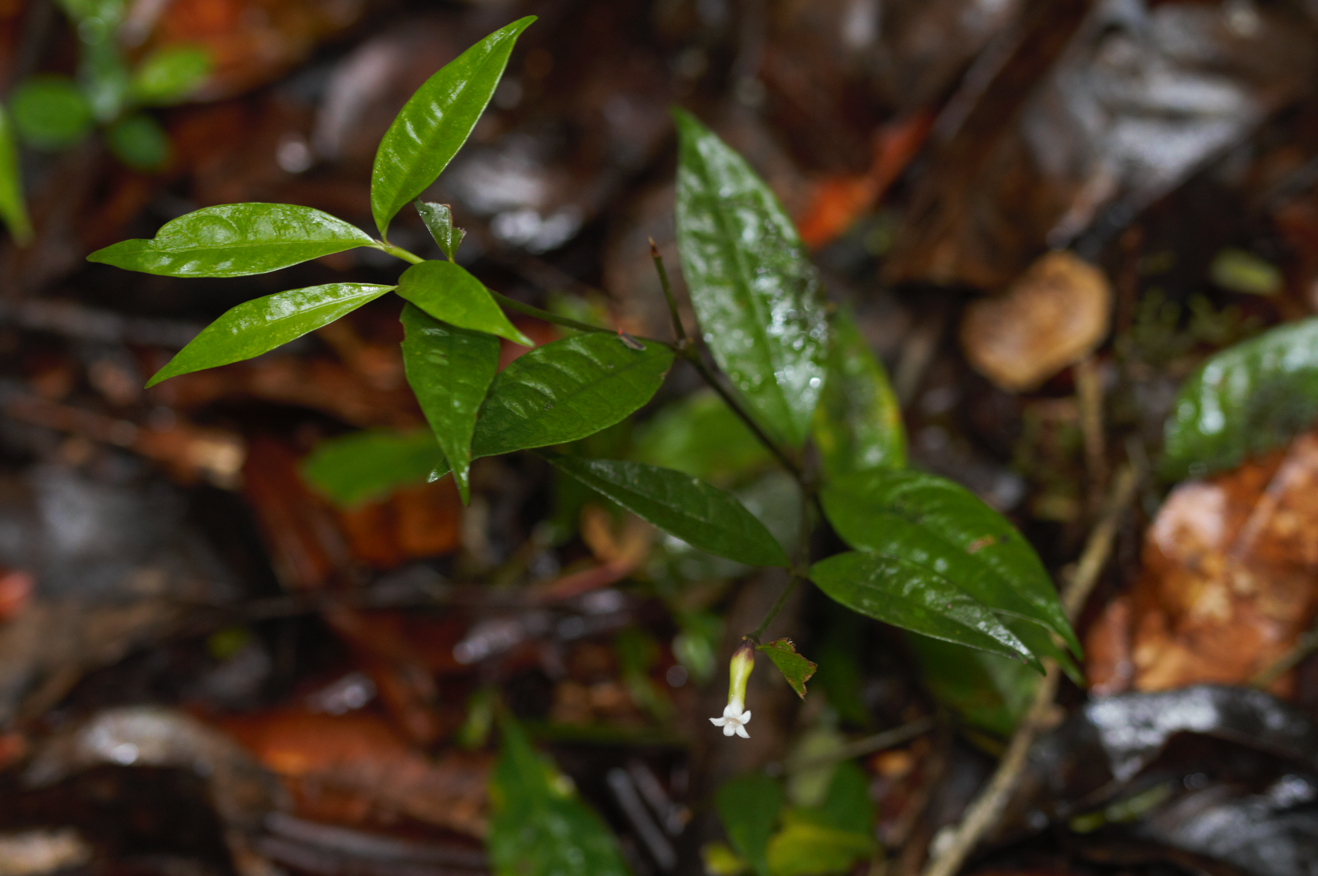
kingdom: Plantae
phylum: Tracheophyta
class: Magnoliopsida
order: Gentianales
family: Rubiaceae
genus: Palicourea
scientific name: Palicourea oblonga
